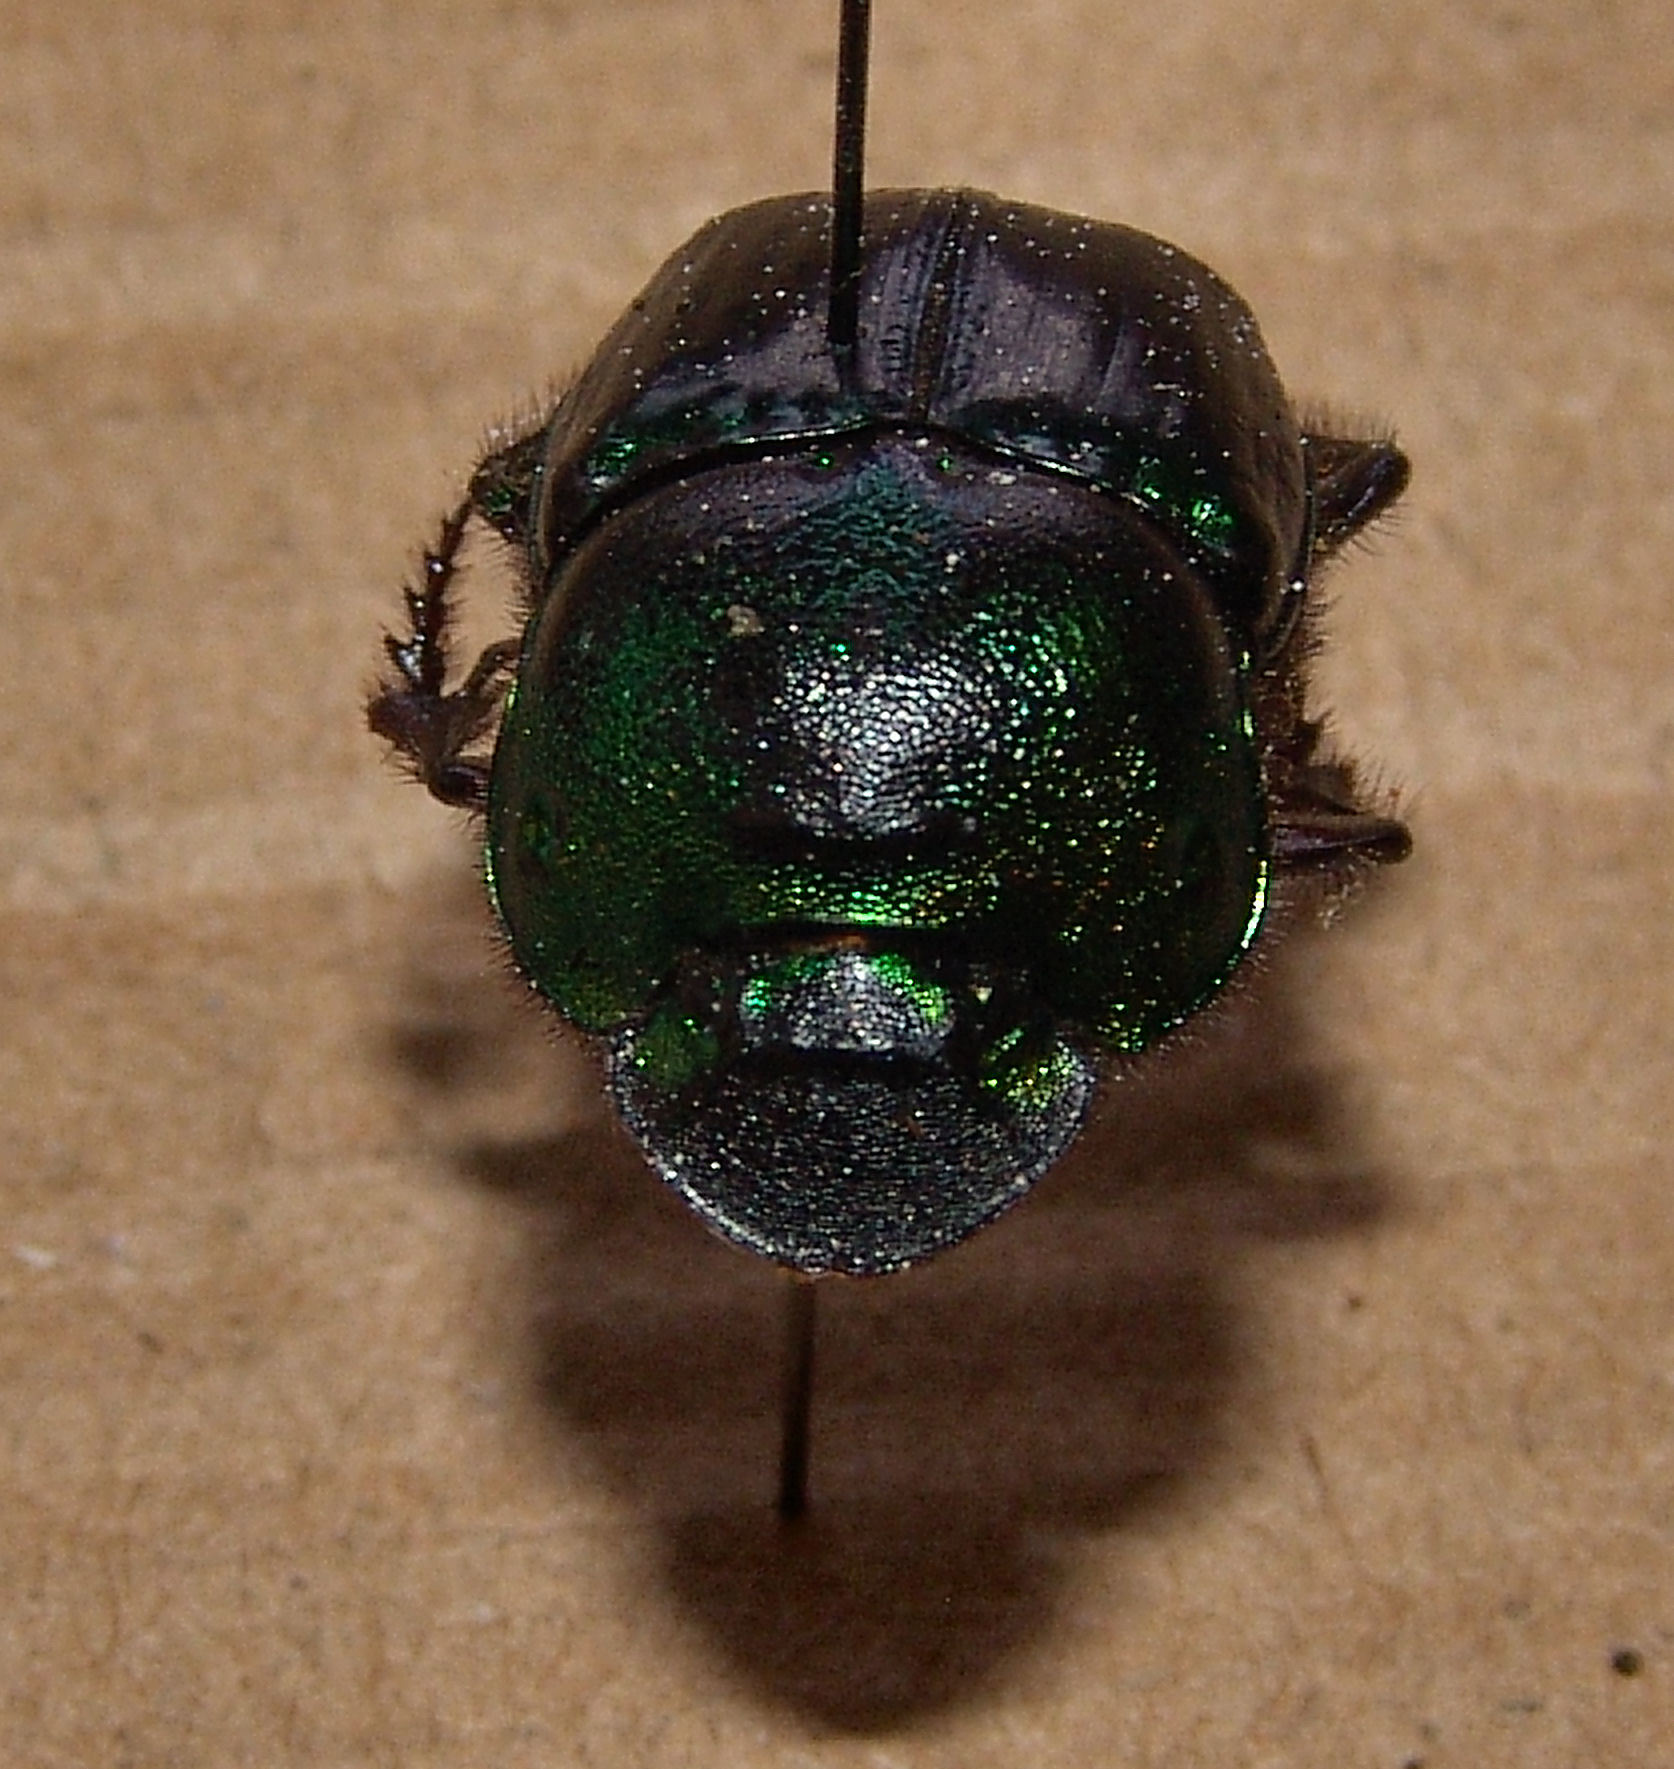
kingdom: Animalia
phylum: Arthropoda
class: Insecta
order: Coleoptera
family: Scarabaeidae
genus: Phanaeus
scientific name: Phanaeus borealis
